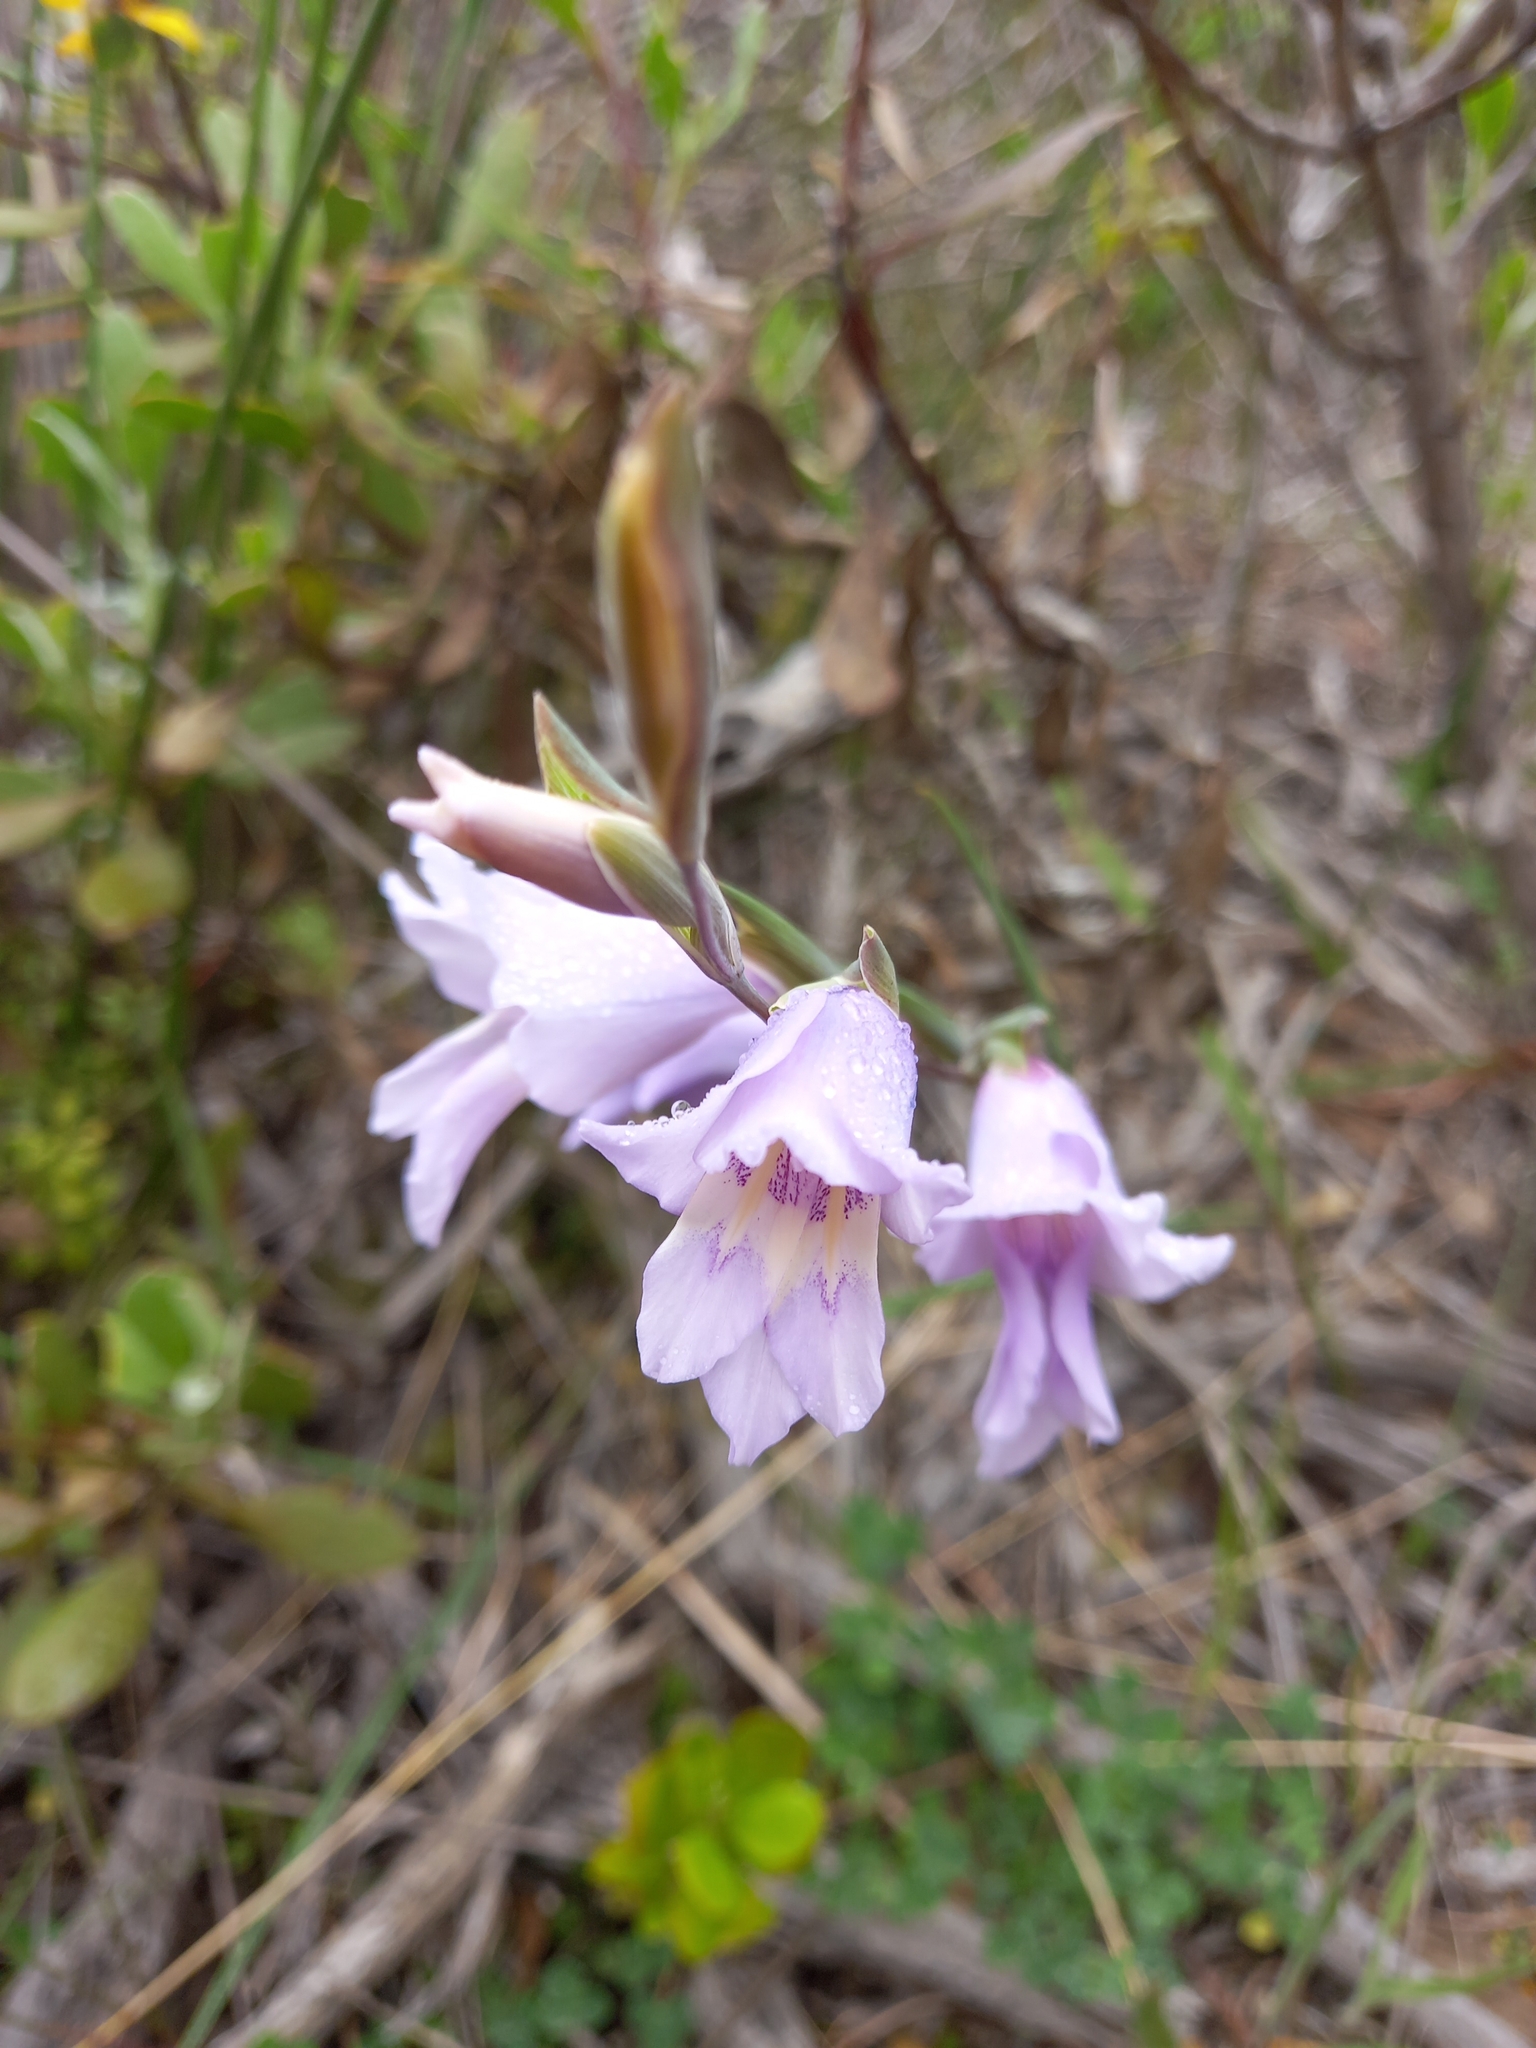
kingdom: Plantae
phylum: Tracheophyta
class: Liliopsida
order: Asparagales
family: Iridaceae
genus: Gladiolus
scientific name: Gladiolus carinatus
